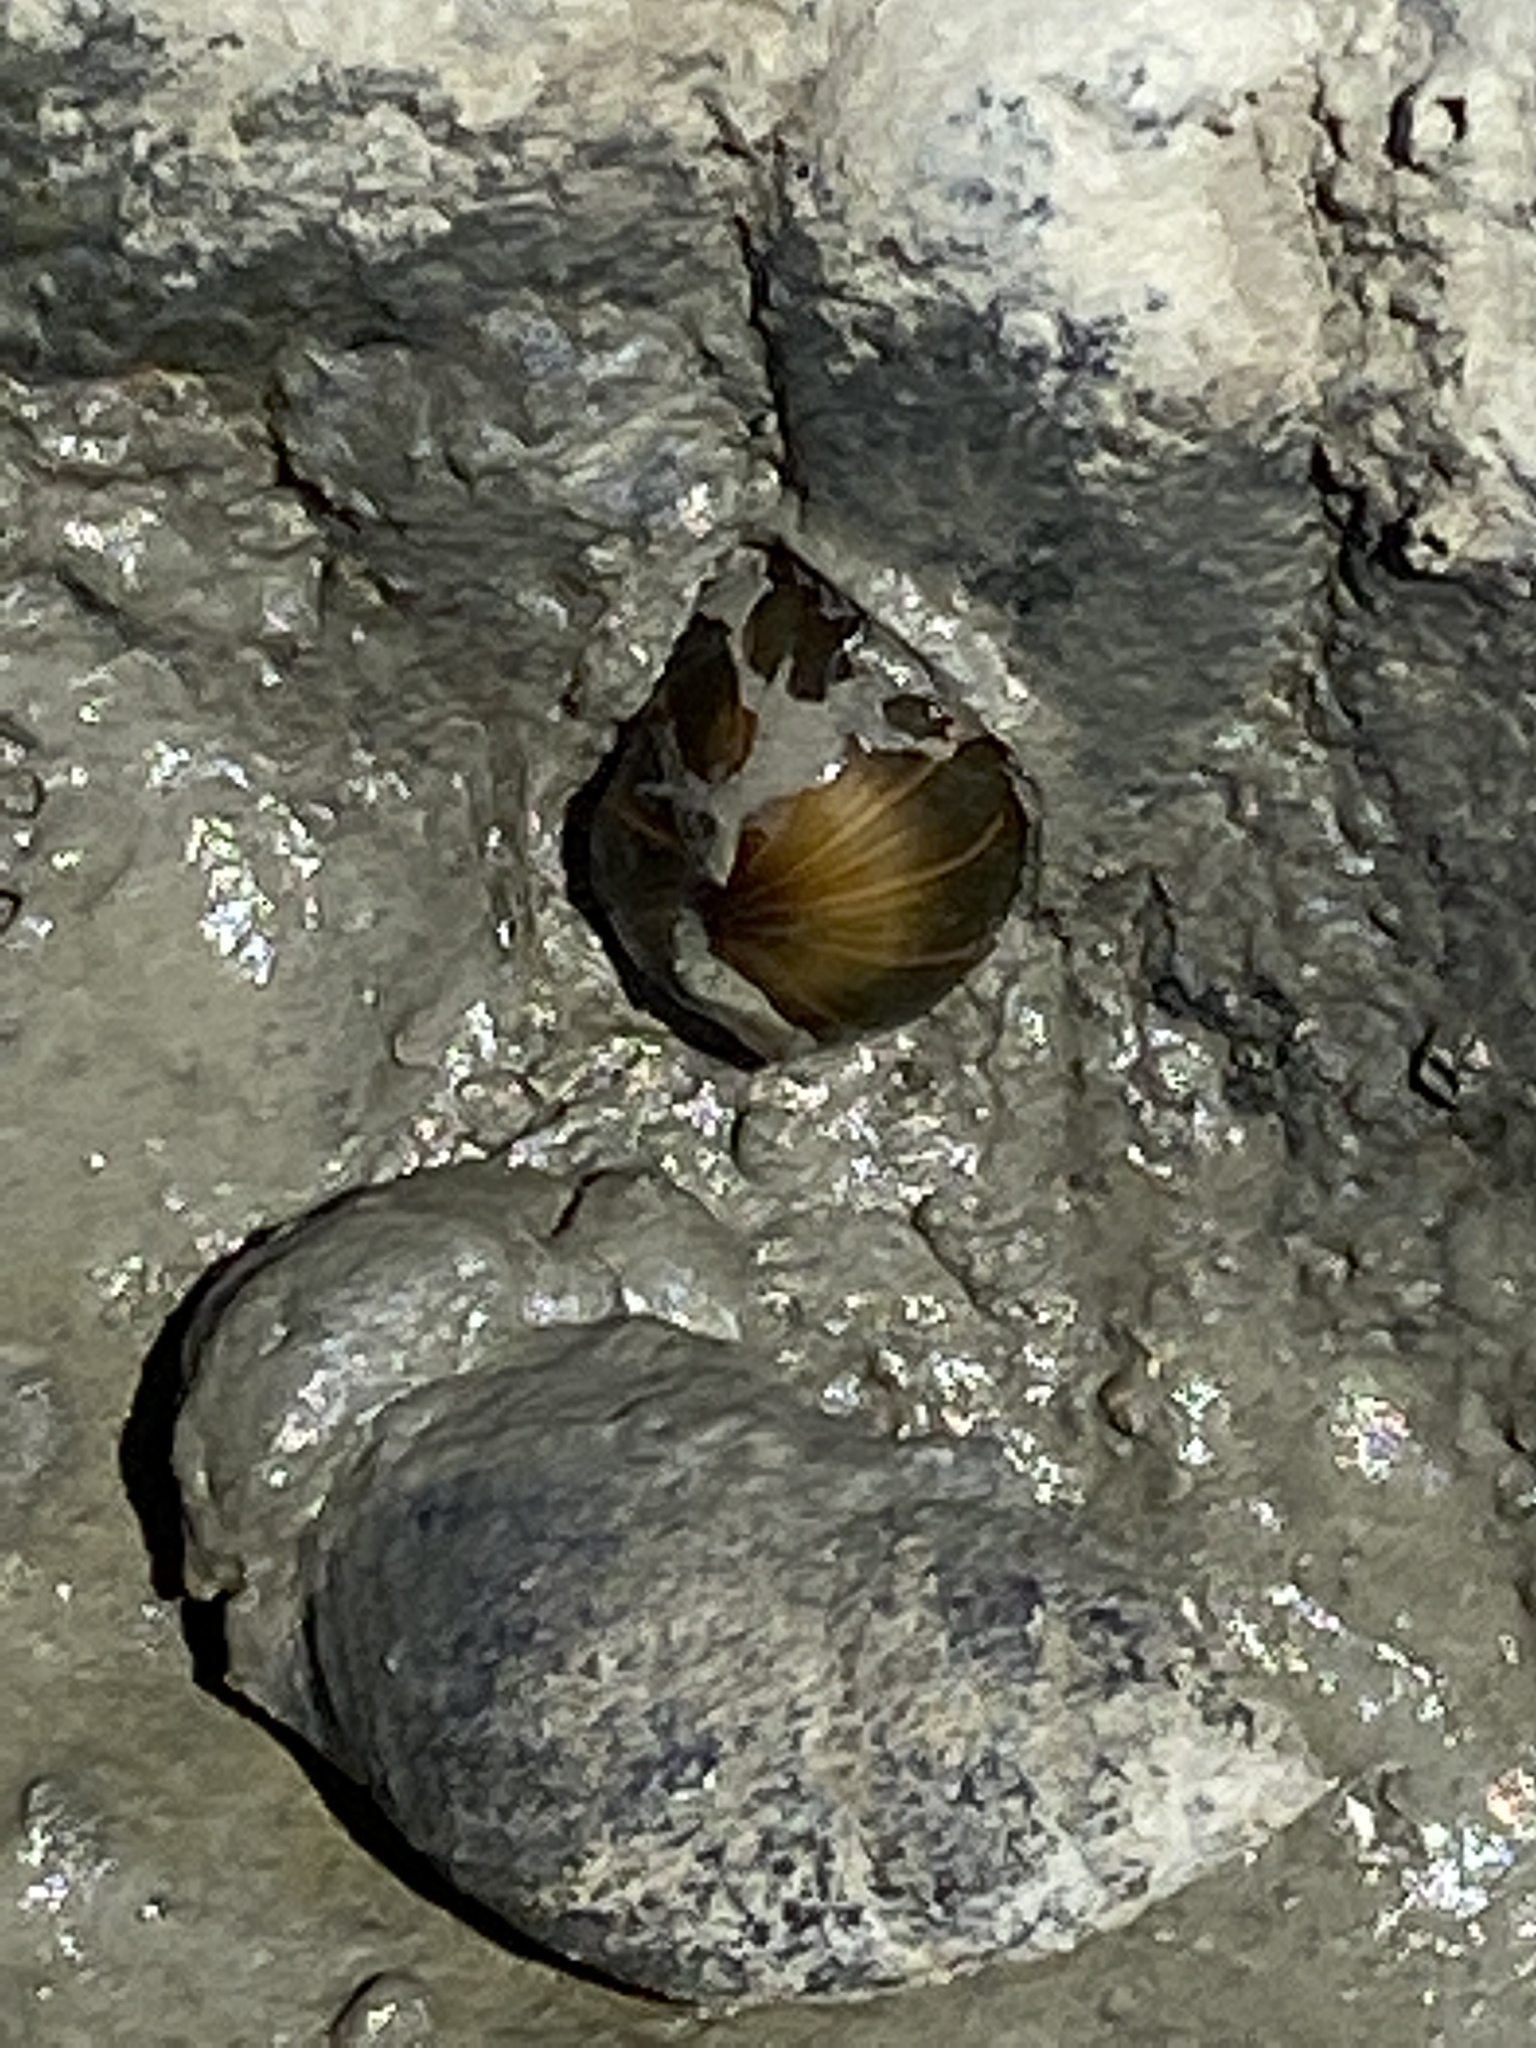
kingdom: Animalia
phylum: Cnidaria
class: Anthozoa
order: Actiniaria
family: Diadumenidae
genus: Diadumene
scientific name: Diadumene lineata
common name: Orange-striped anemone
